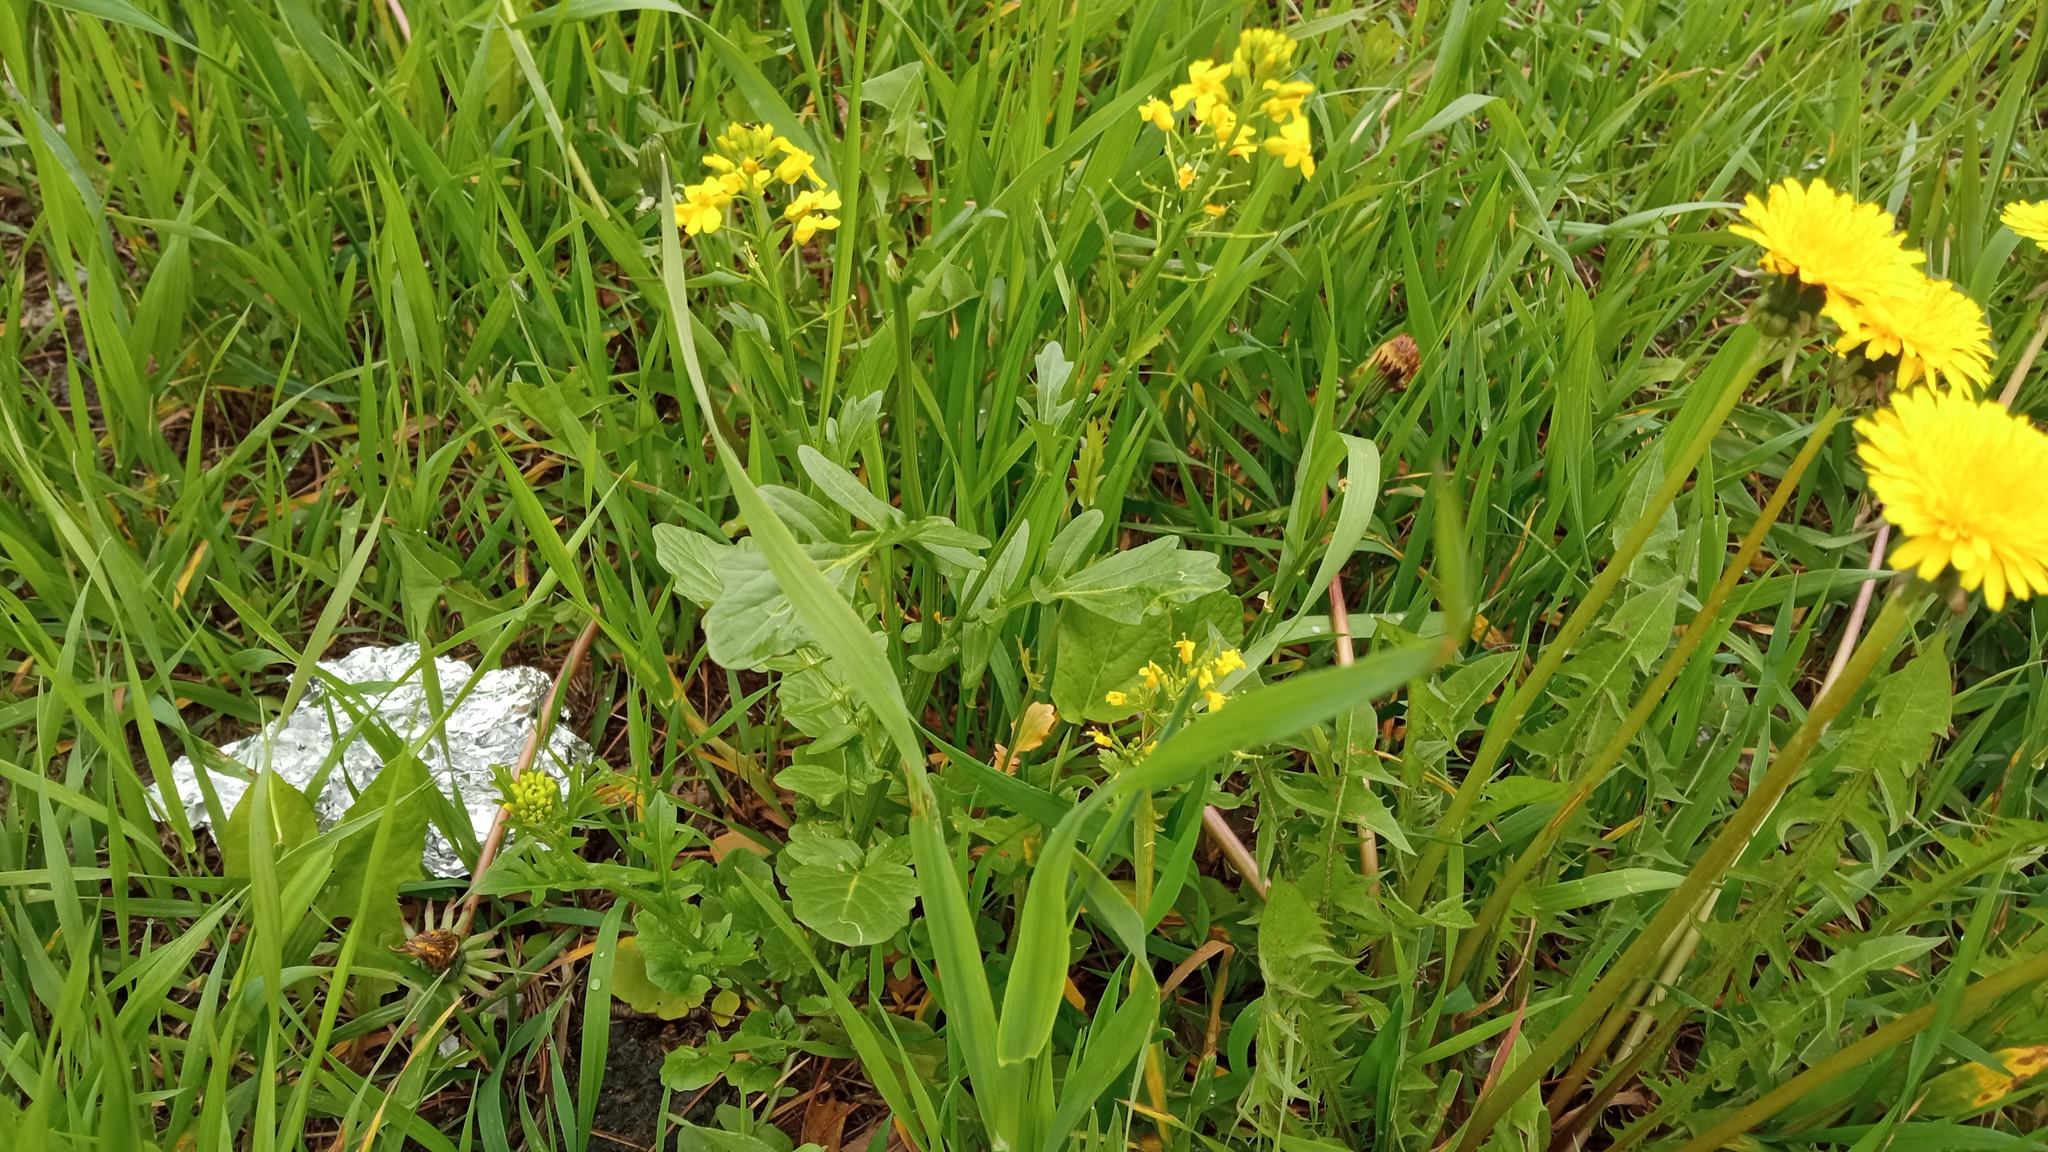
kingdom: Plantae
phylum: Tracheophyta
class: Magnoliopsida
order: Brassicales
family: Brassicaceae
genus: Barbarea
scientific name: Barbarea vulgaris
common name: Cressy-greens
